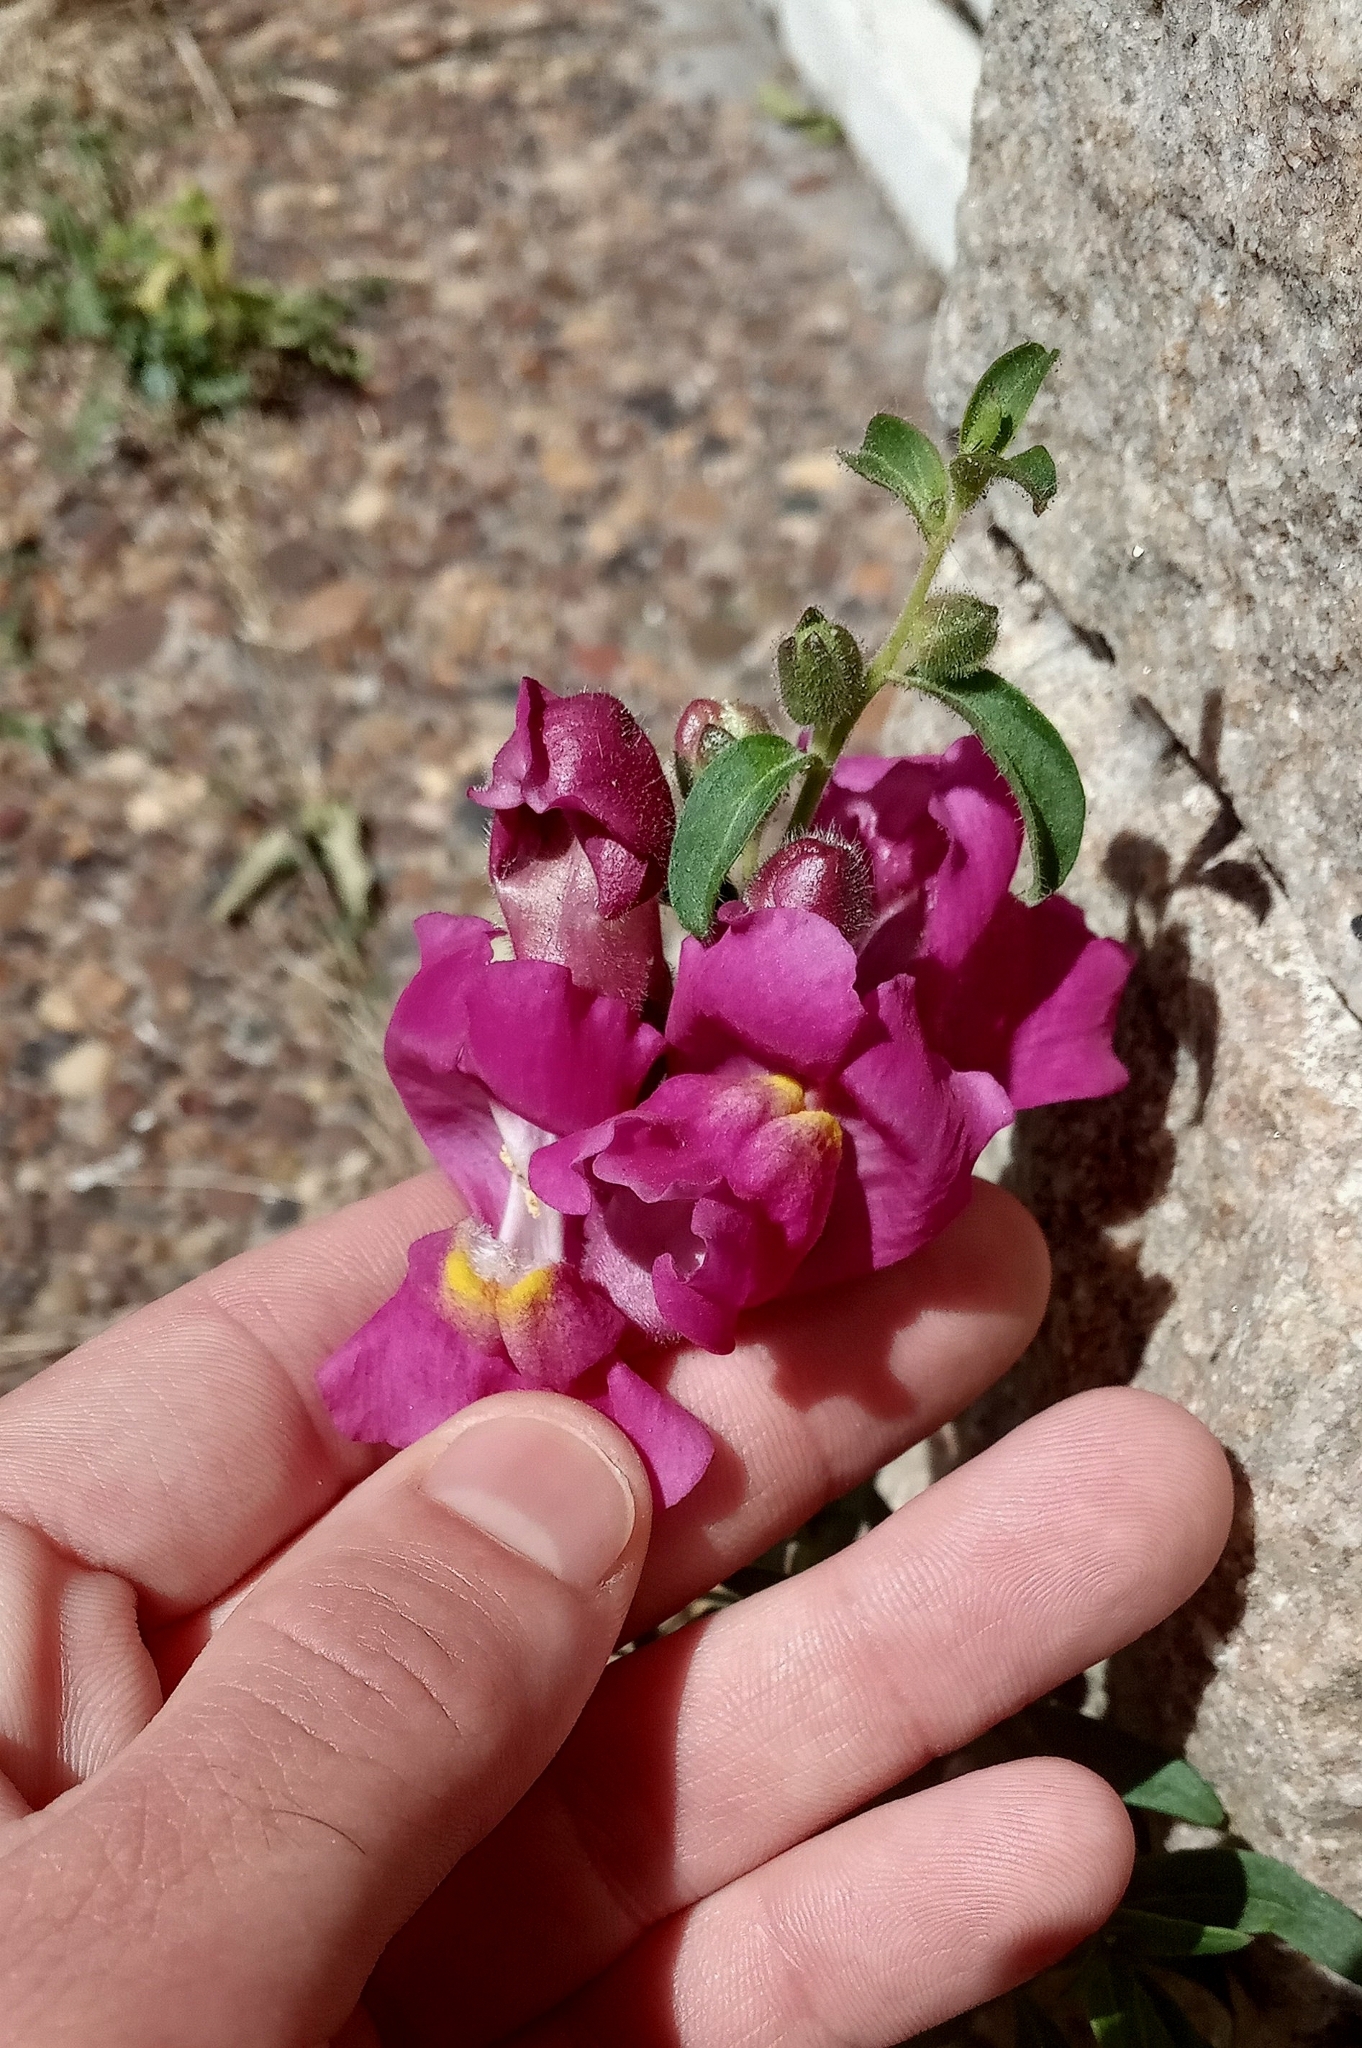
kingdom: Plantae
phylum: Tracheophyta
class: Magnoliopsida
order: Lamiales
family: Plantaginaceae
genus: Antirrhinum
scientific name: Antirrhinum majus
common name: Snapdragon
